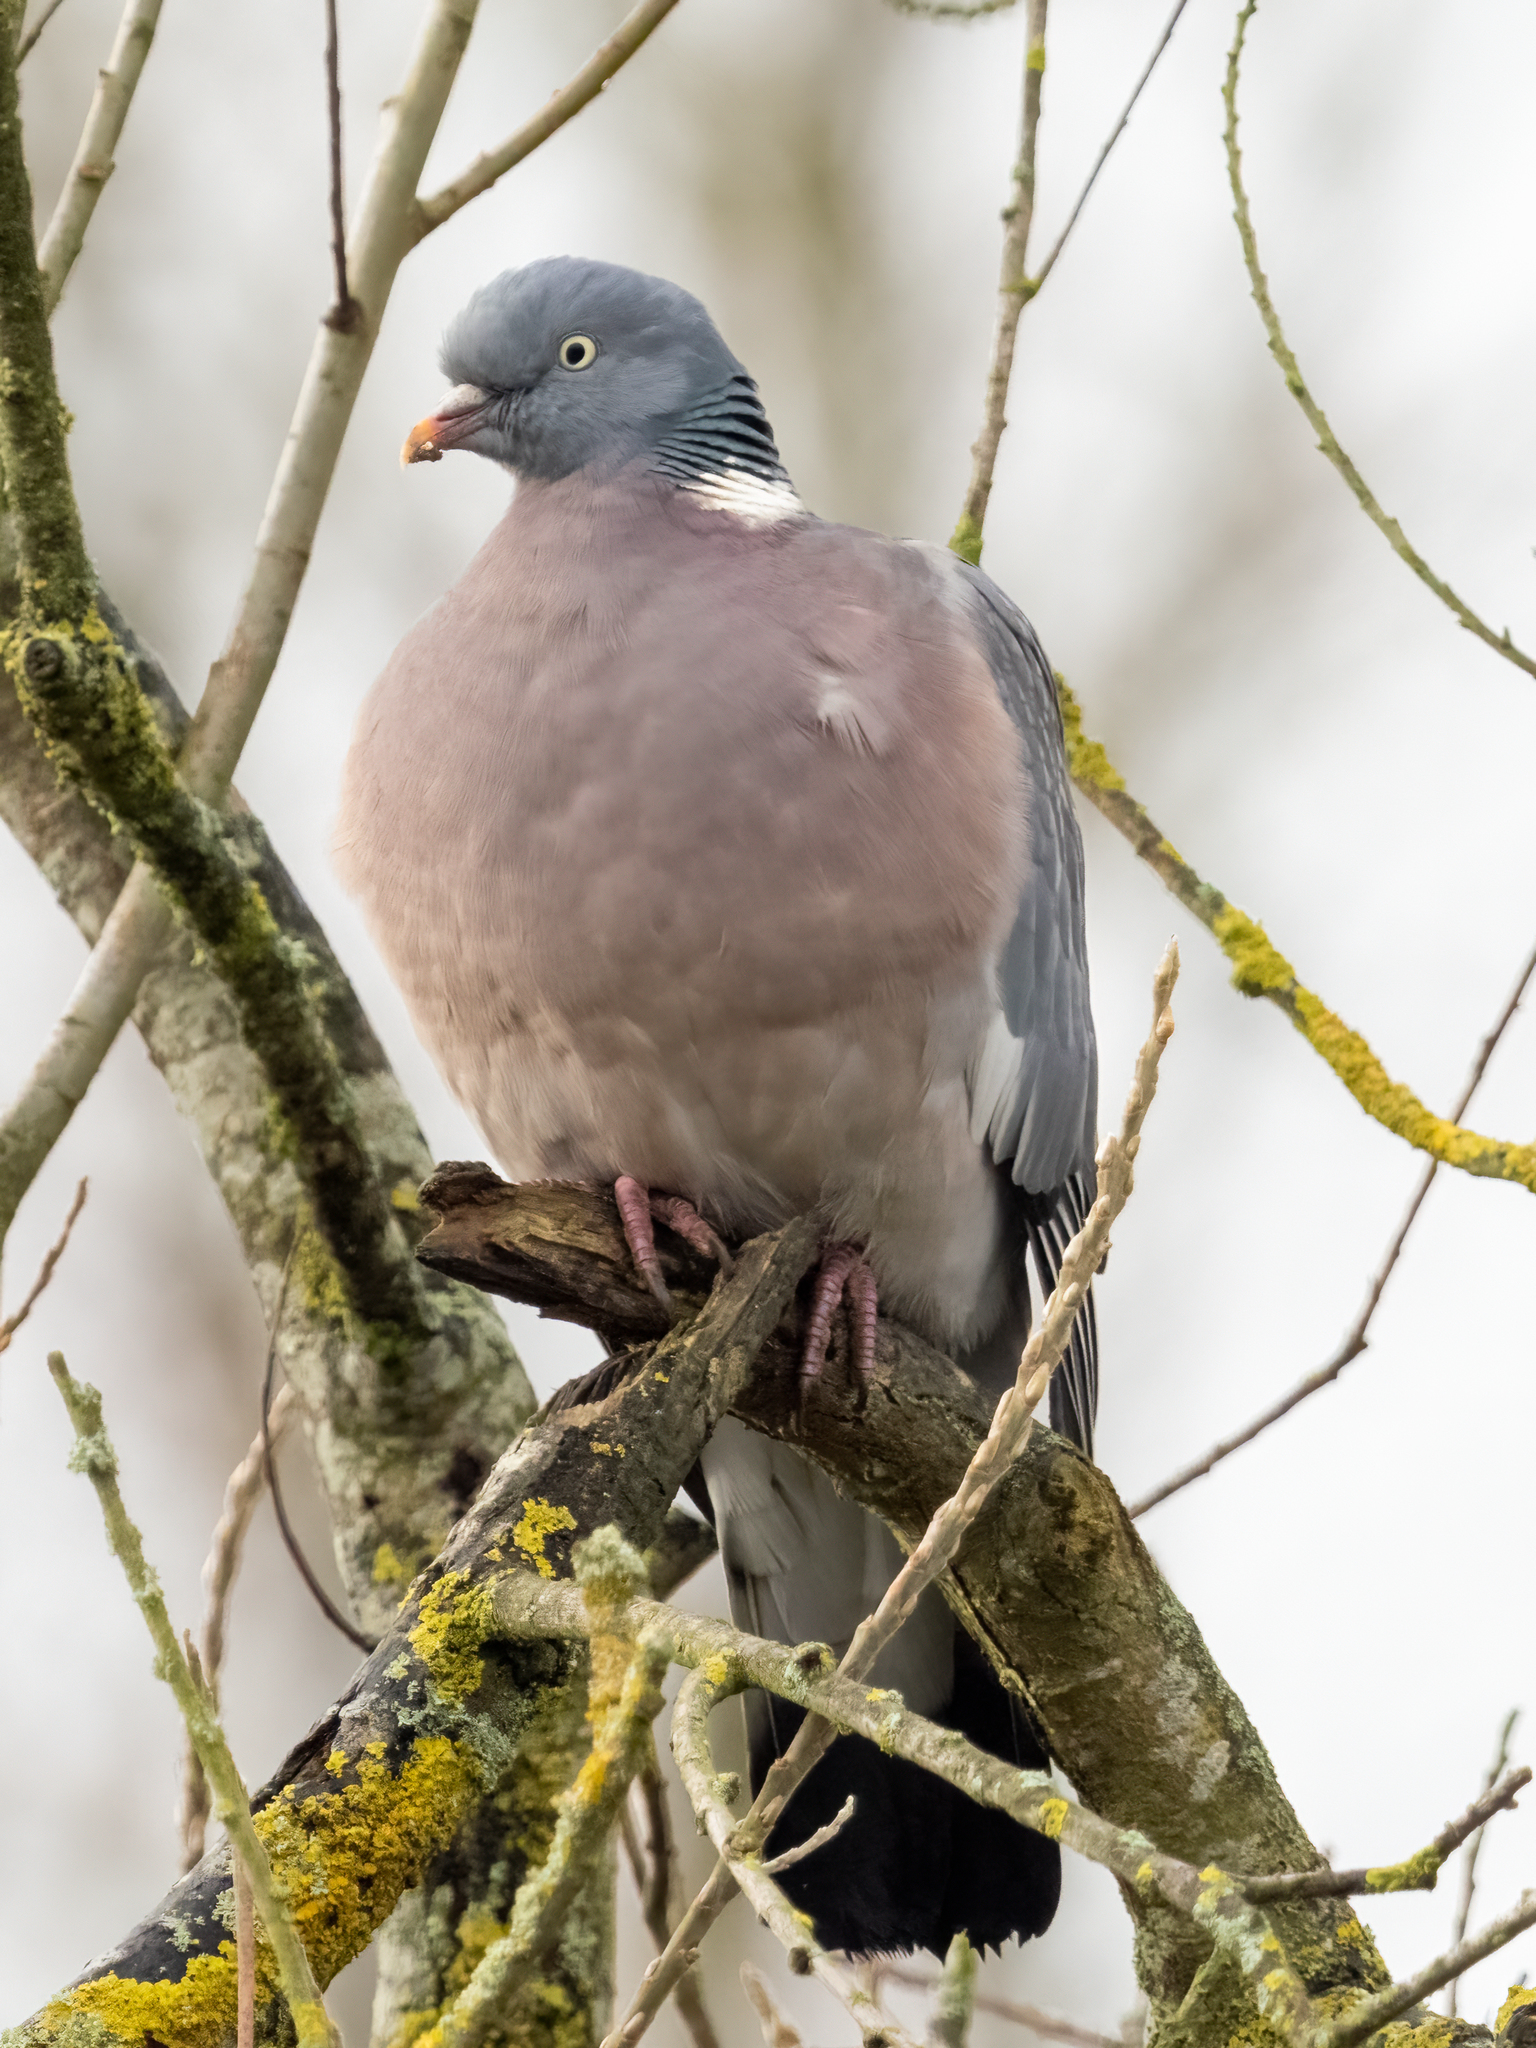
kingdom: Animalia
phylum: Chordata
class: Aves
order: Columbiformes
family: Columbidae
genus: Columba
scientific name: Columba palumbus
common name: Common wood pigeon
